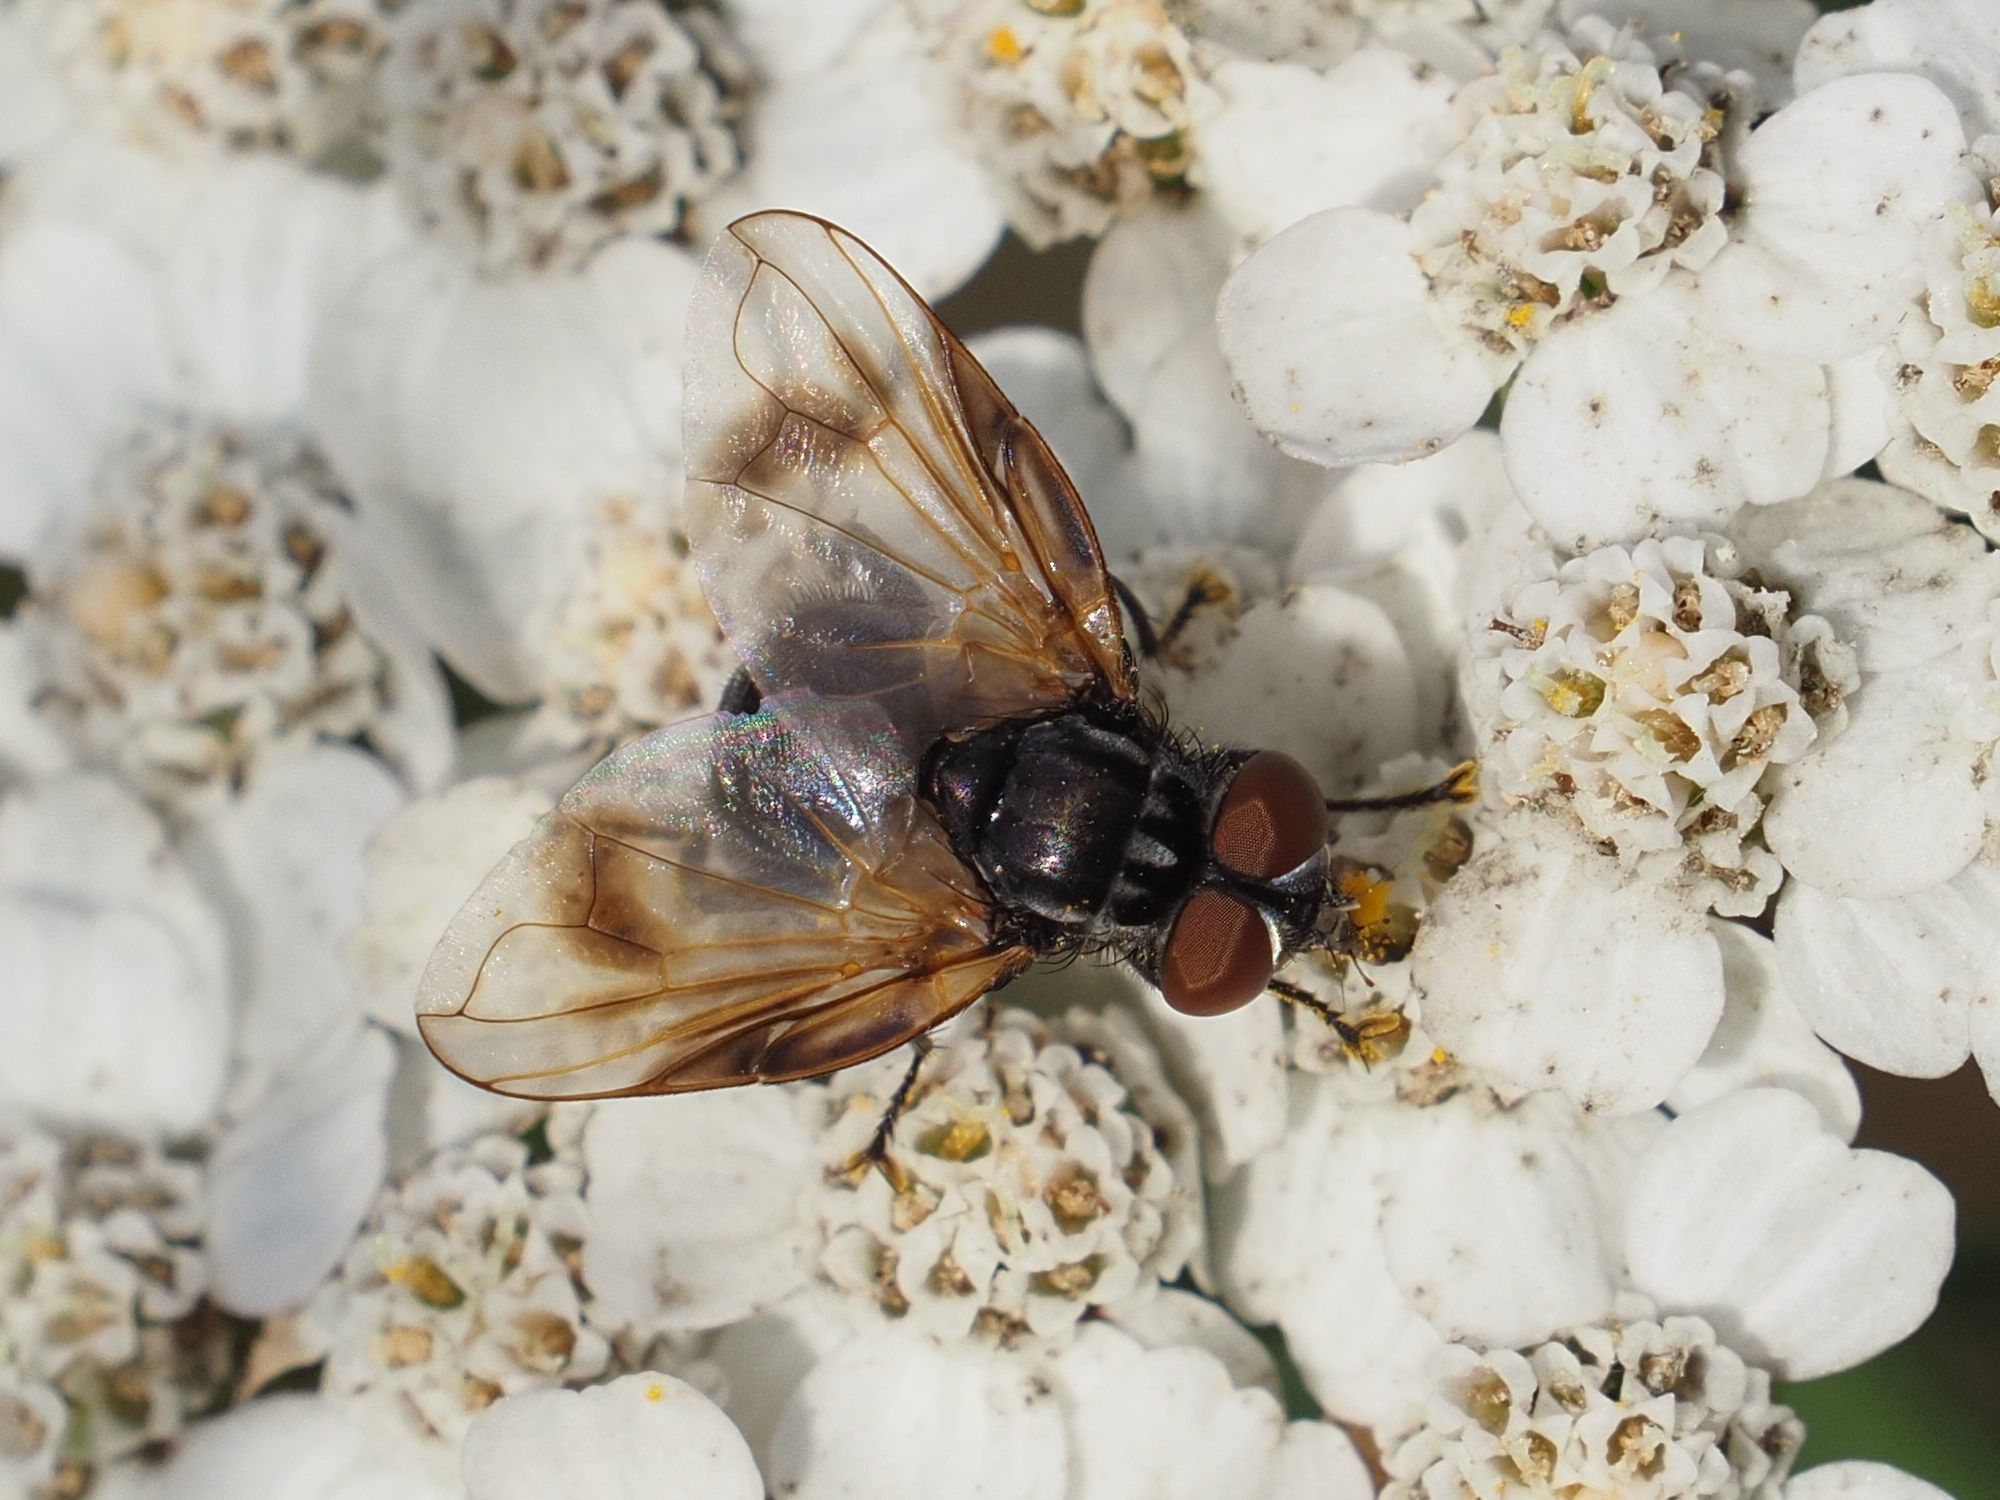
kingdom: Animalia
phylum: Arthropoda
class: Insecta
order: Diptera
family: Tachinidae
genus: Phasia
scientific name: Phasia obesa
